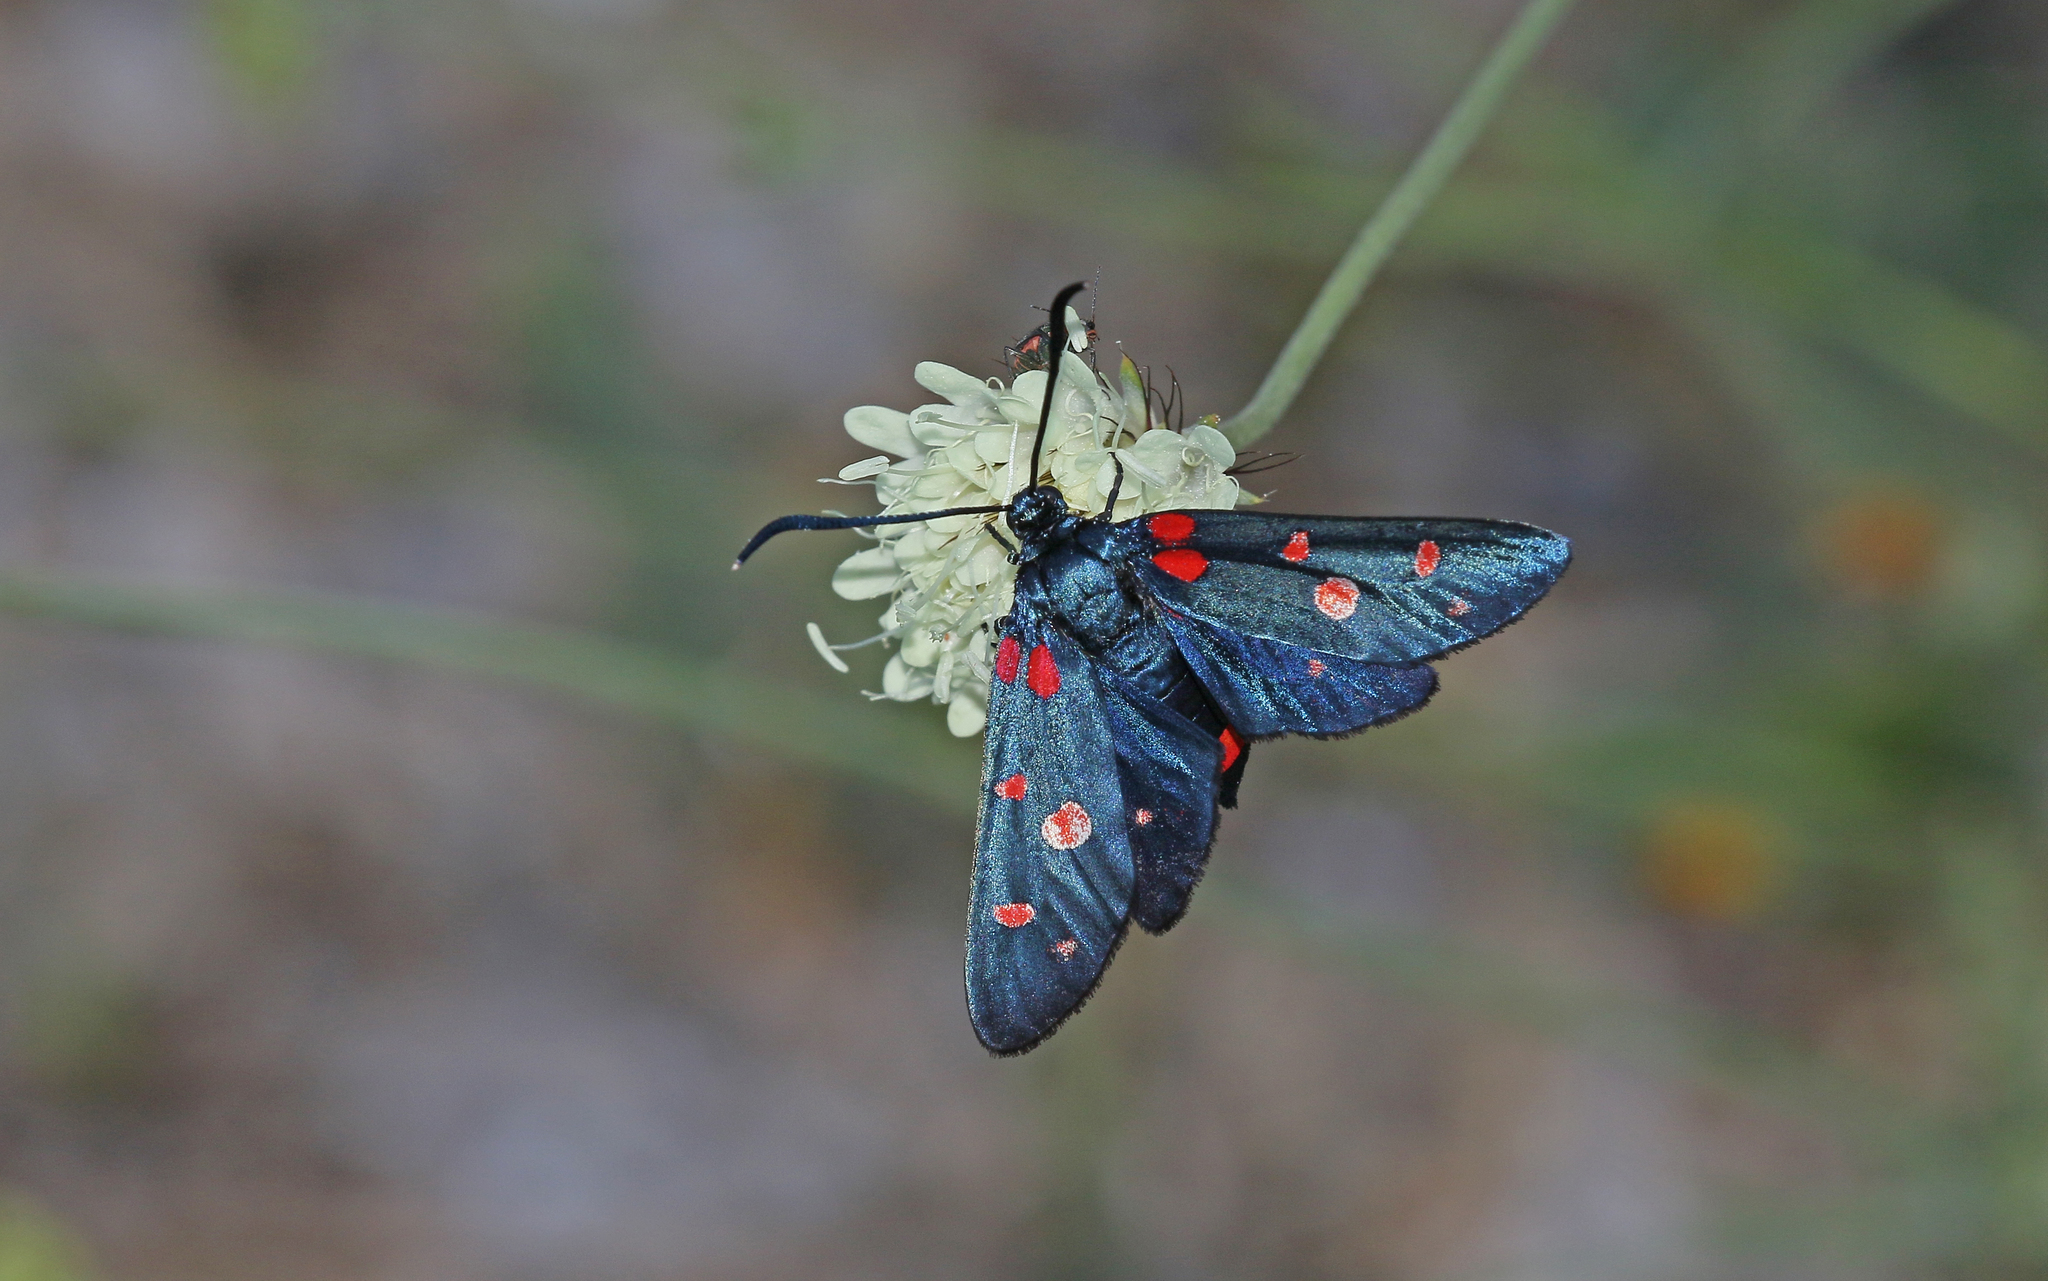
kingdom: Animalia
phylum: Arthropoda
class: Insecta
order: Lepidoptera
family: Zygaenidae
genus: Zygaena
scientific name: Zygaena ephialtes
